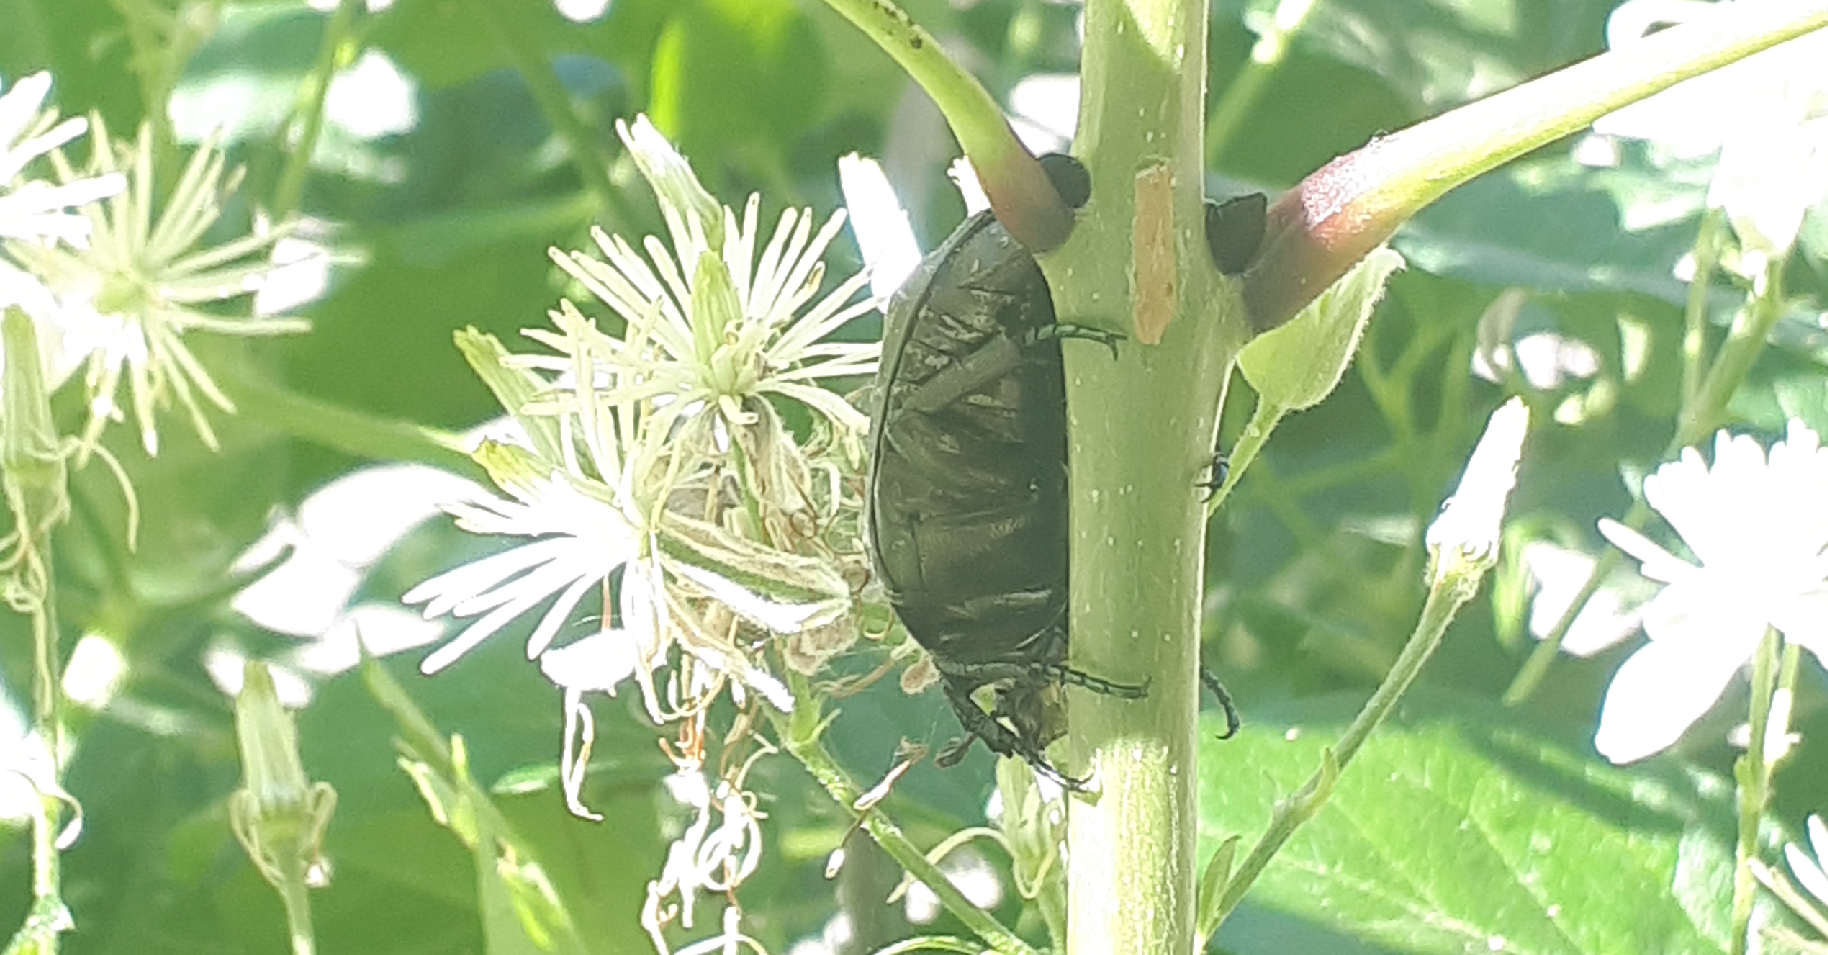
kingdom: Animalia
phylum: Arthropoda
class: Insecta
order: Coleoptera
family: Scarabaeidae
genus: Protaetia
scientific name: Protaetia marmorata
